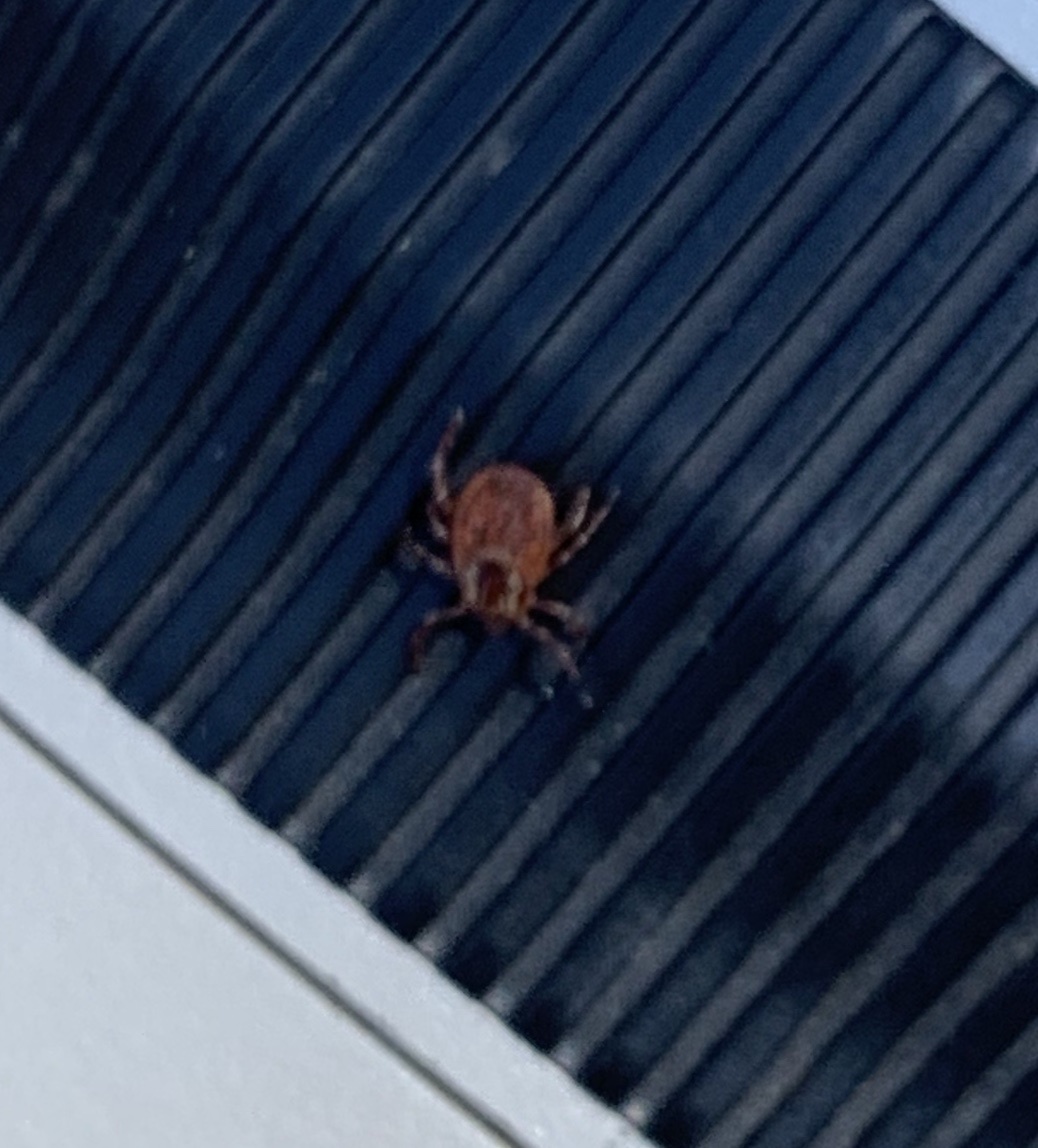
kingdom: Animalia
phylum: Arthropoda
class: Arachnida
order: Ixodida
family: Ixodidae
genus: Dermacentor
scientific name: Dermacentor variabilis
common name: American dog tick
